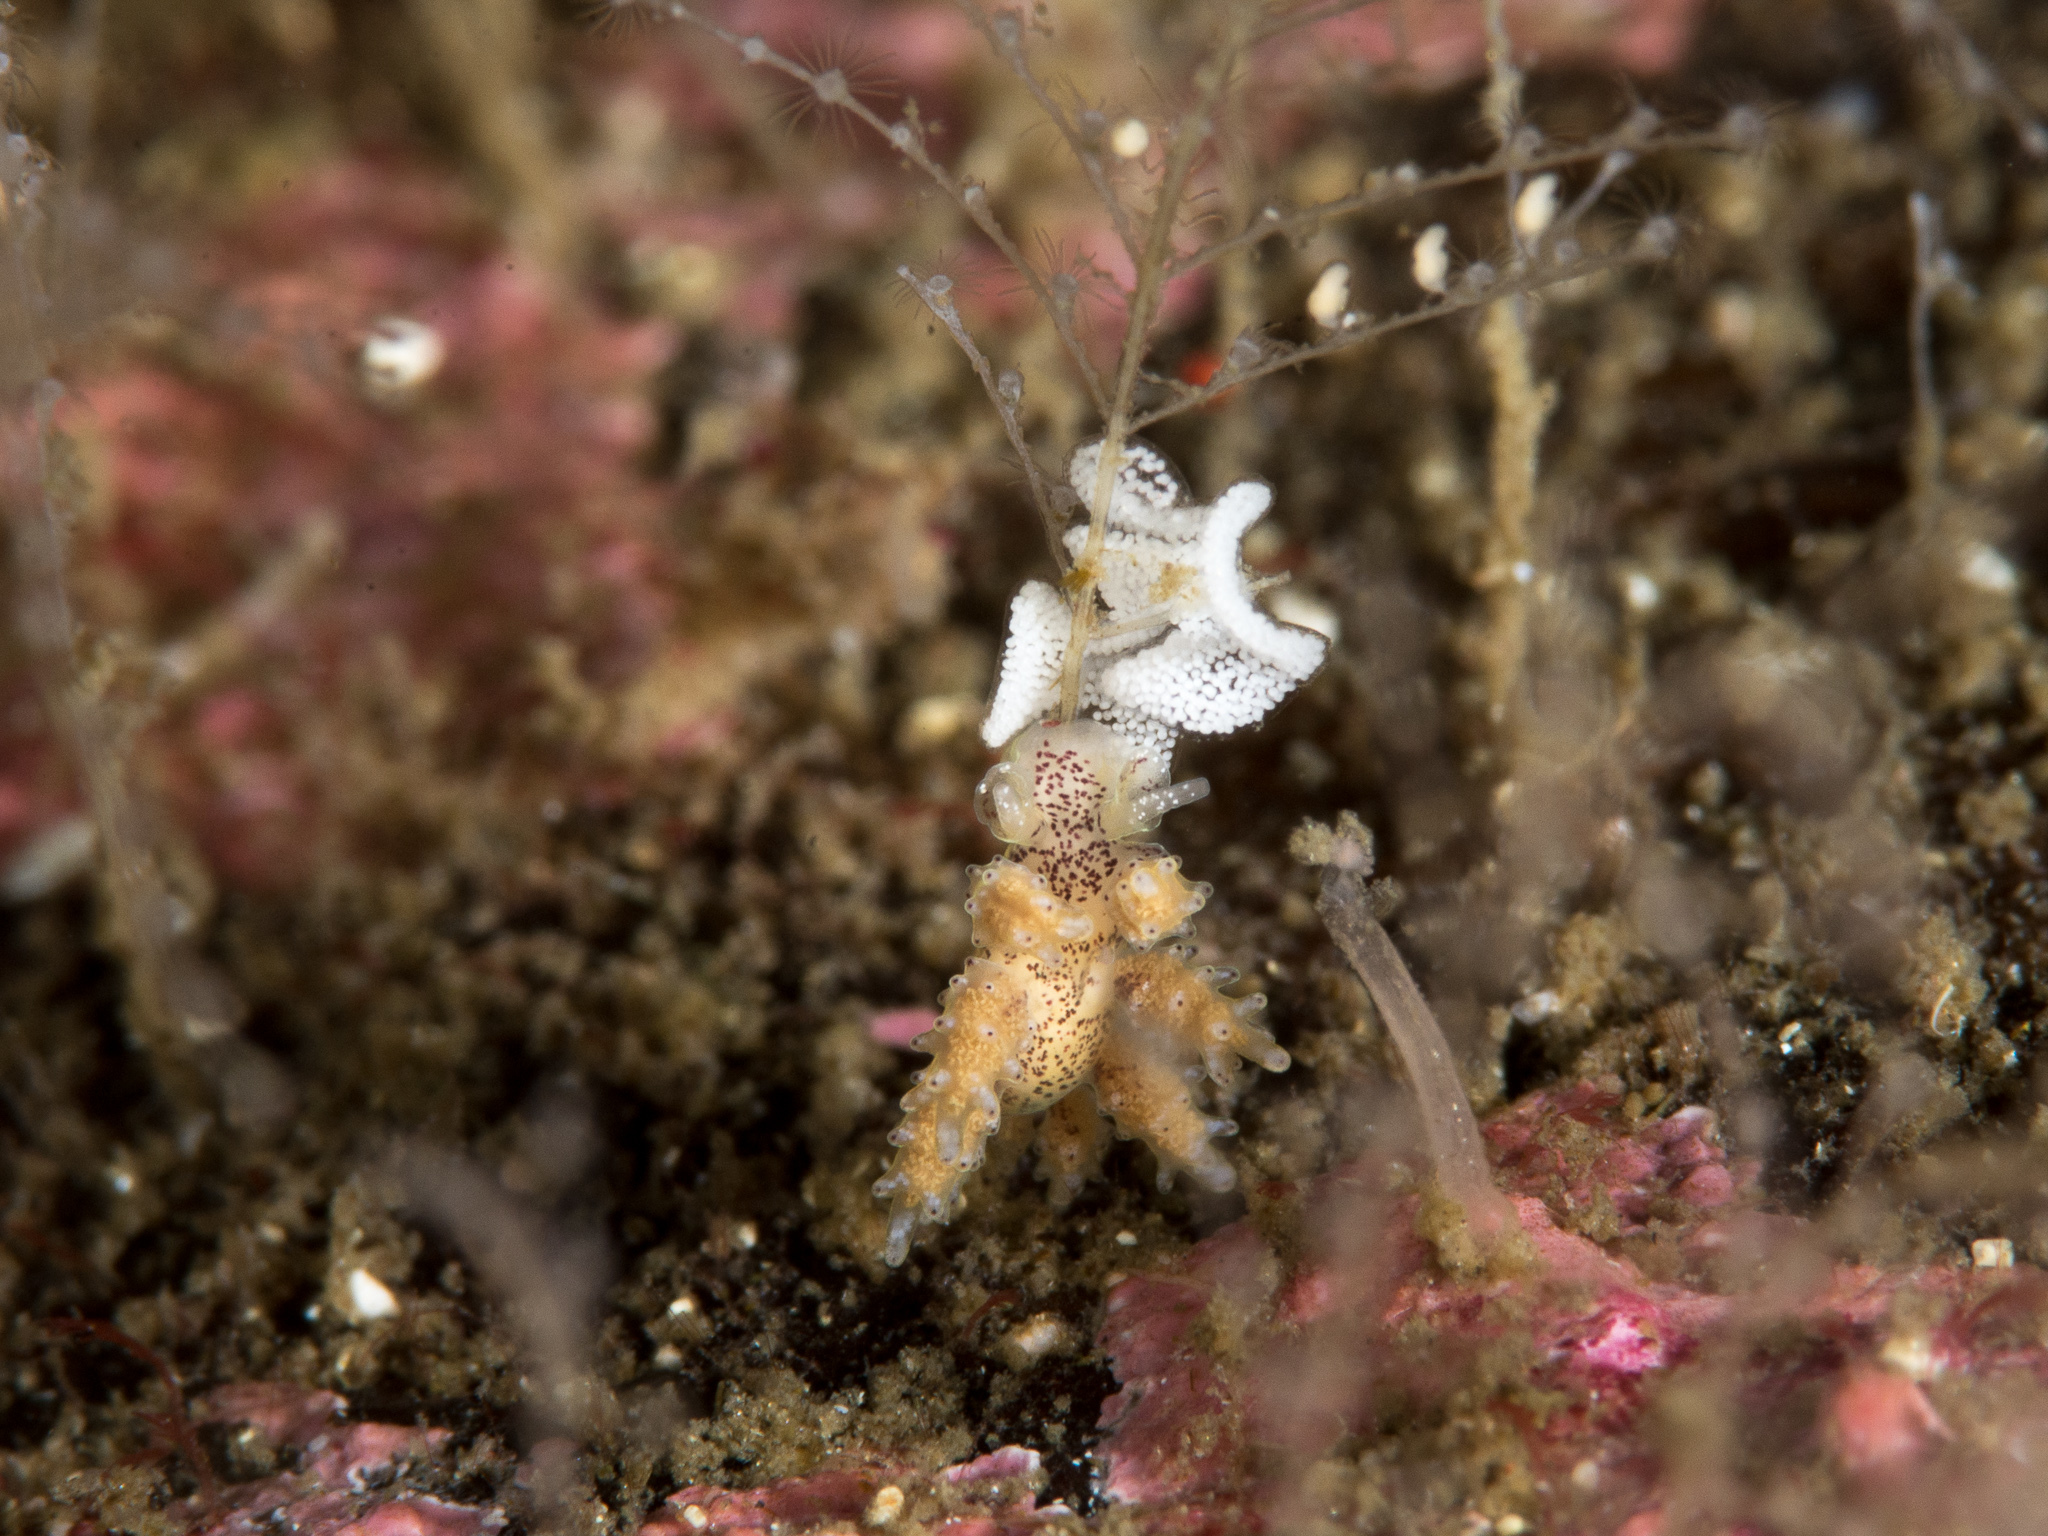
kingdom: Animalia
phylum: Mollusca
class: Gastropoda
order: Nudibranchia
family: Dotidae
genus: Doto
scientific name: Doto maculata
